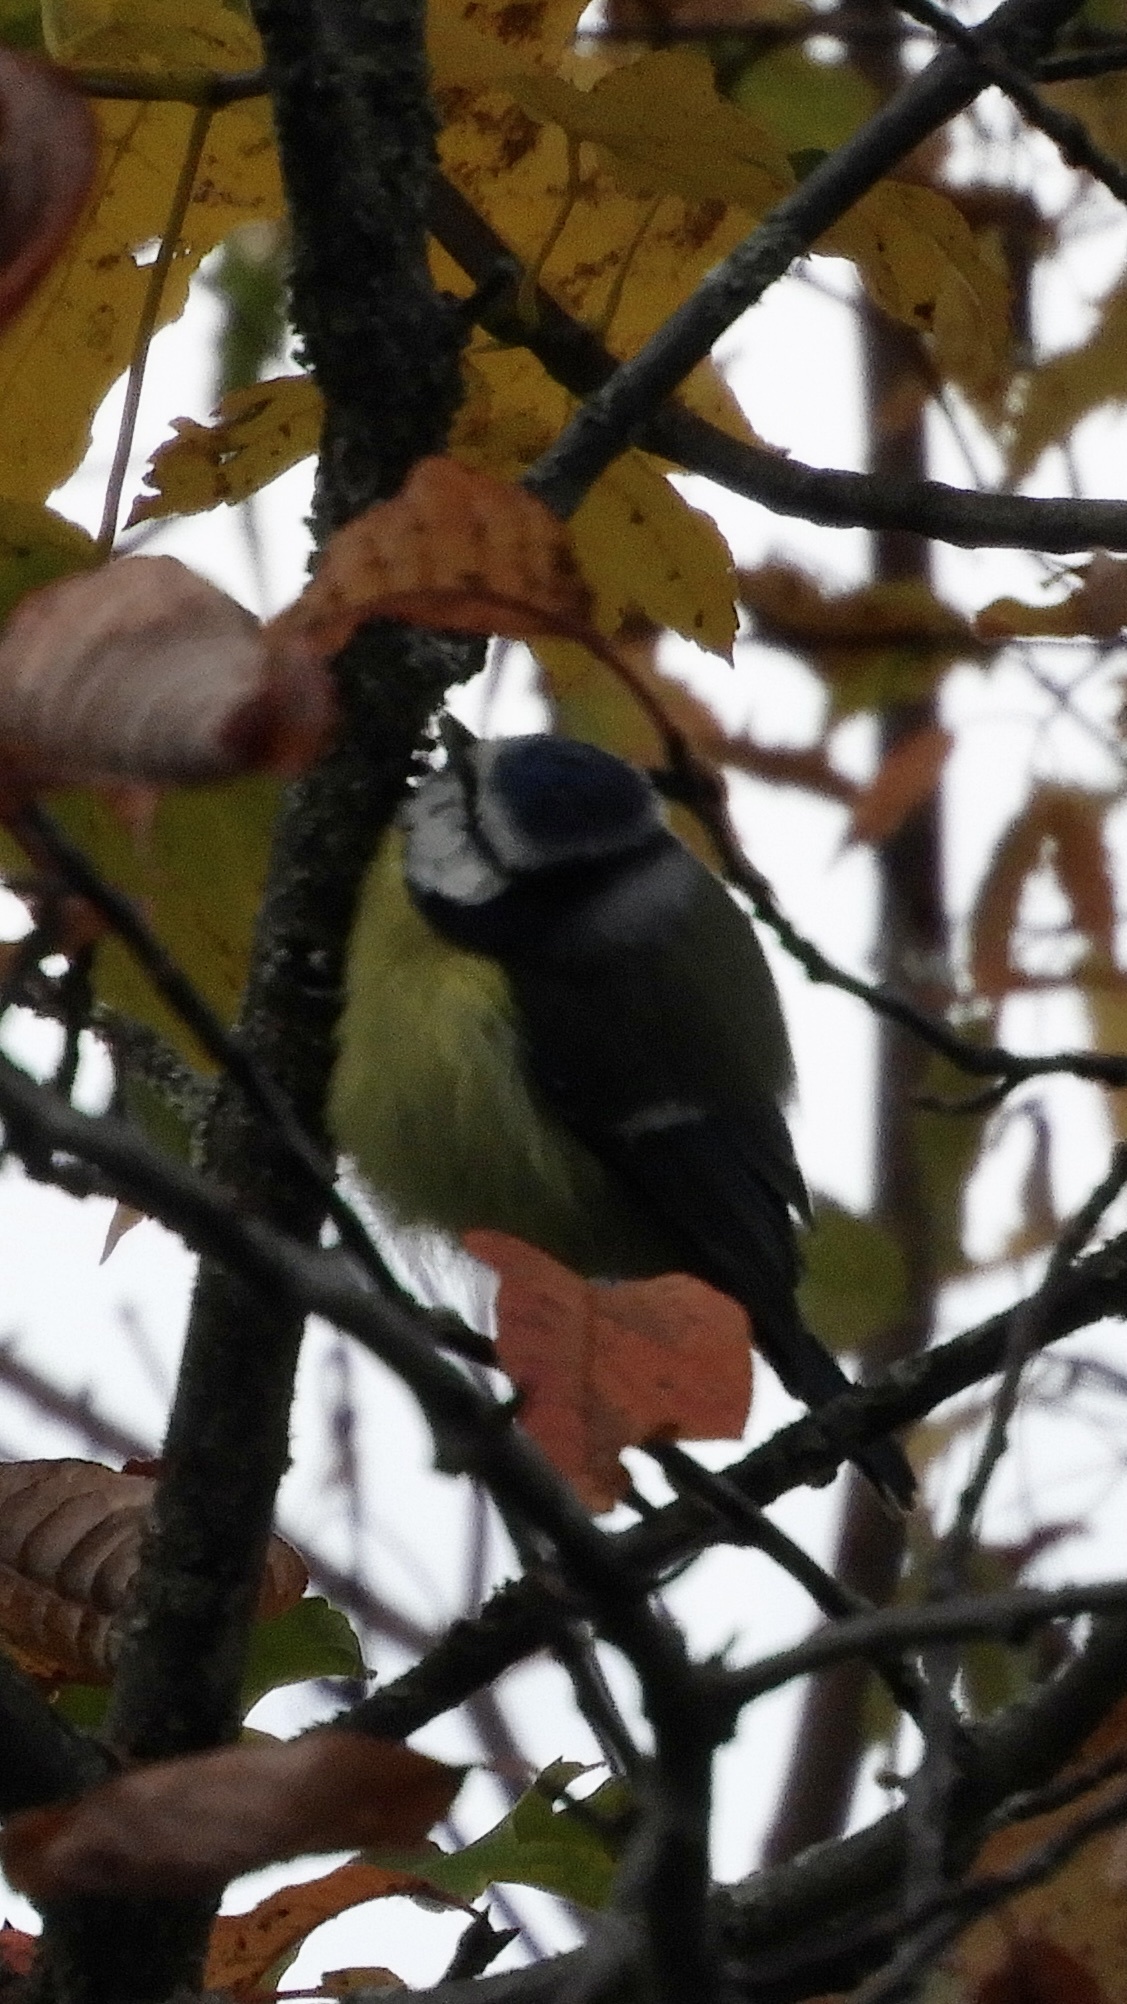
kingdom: Animalia
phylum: Chordata
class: Aves
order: Passeriformes
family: Paridae
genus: Cyanistes
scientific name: Cyanistes caeruleus
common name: Eurasian blue tit
